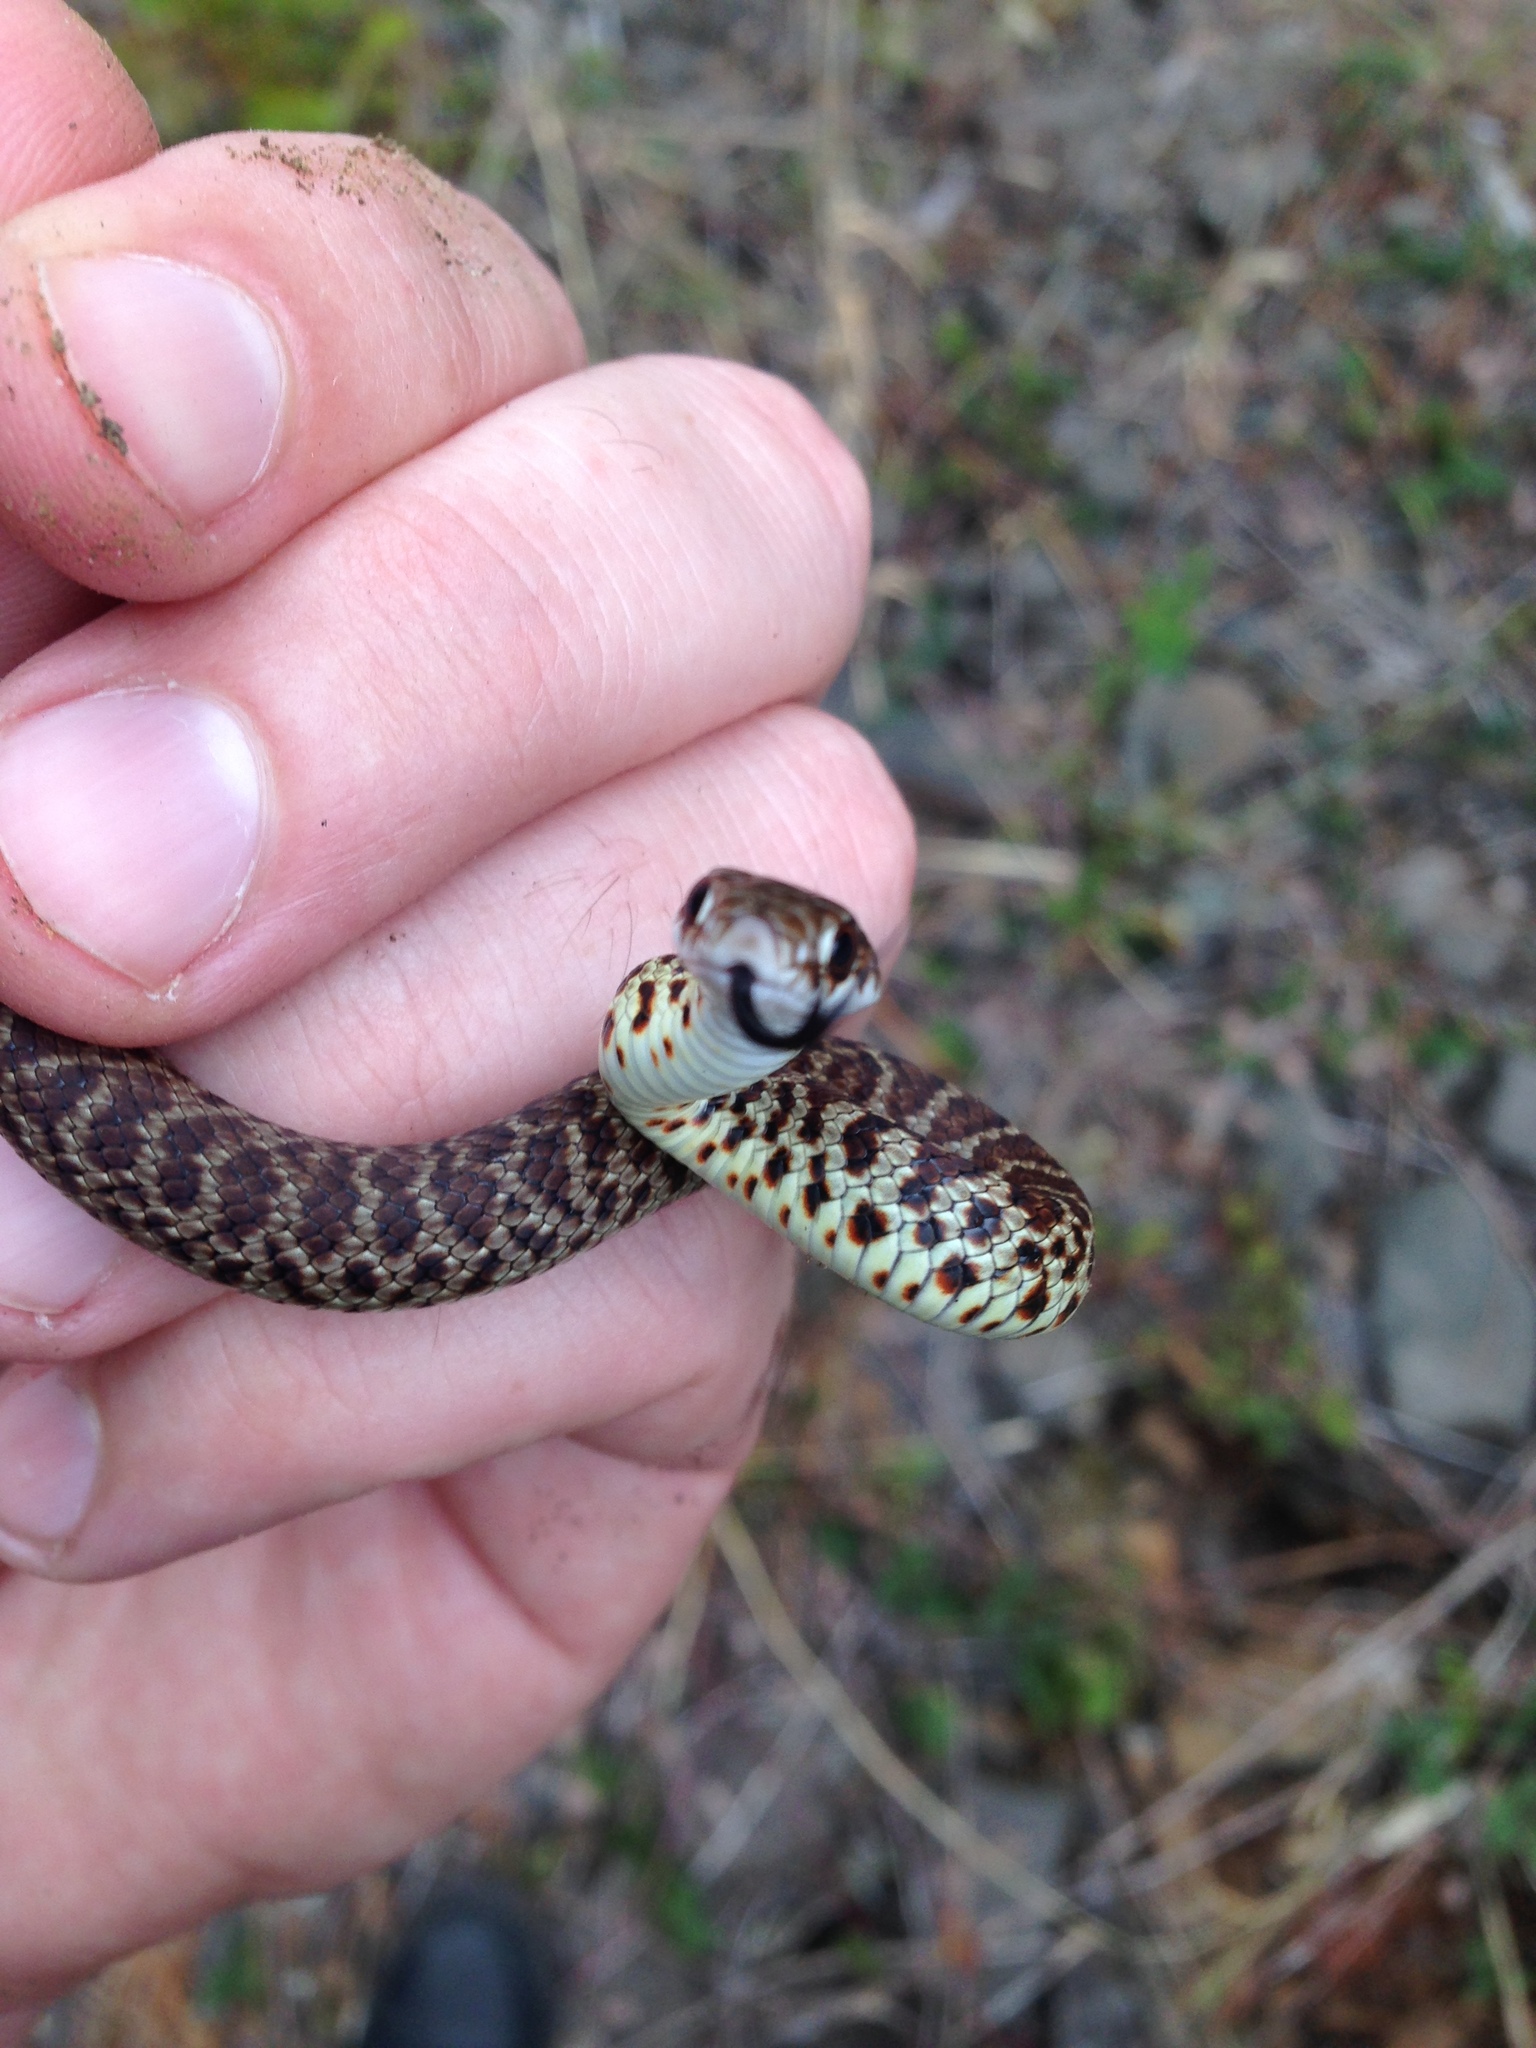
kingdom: Animalia
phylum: Chordata
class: Squamata
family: Colubridae
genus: Coluber
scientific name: Coluber constrictor
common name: Eastern racer
